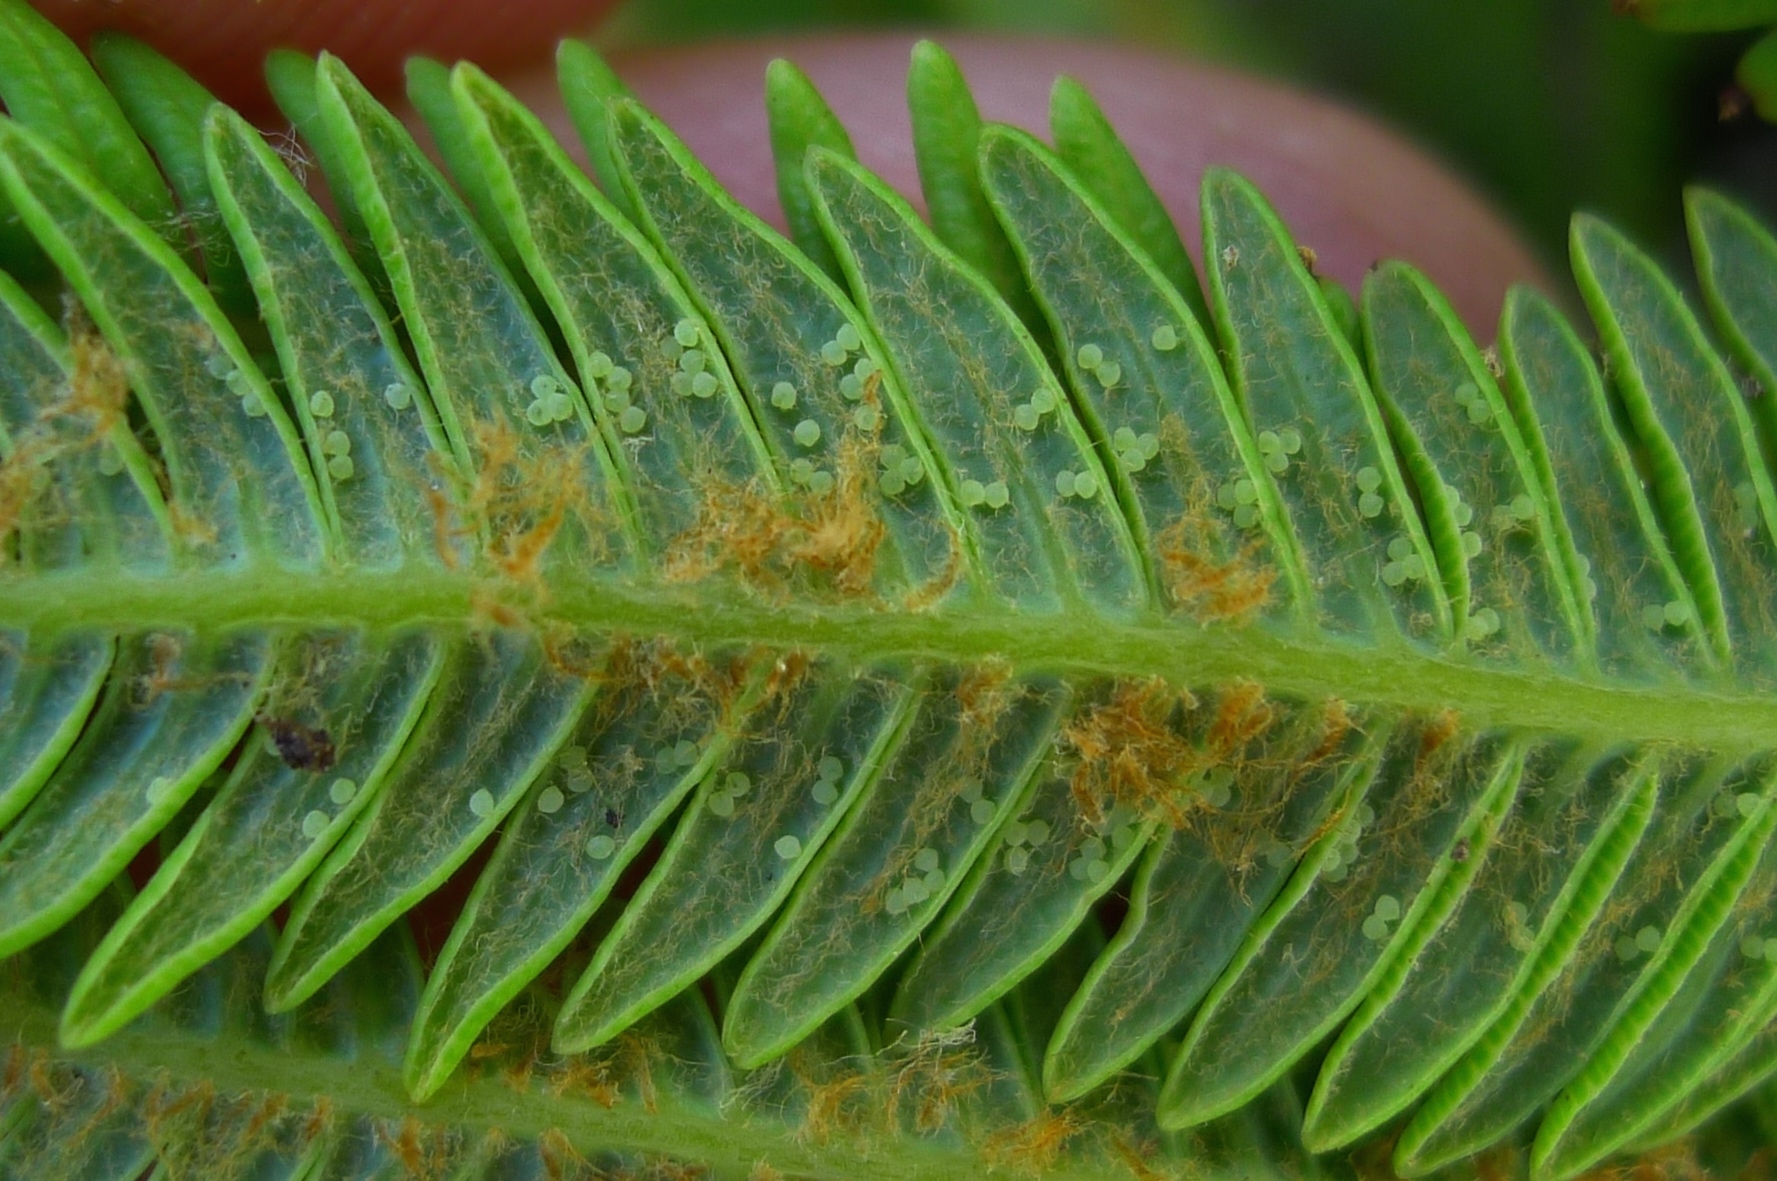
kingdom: Plantae
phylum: Tracheophyta
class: Polypodiopsida
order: Gleicheniales
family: Gleicheniaceae
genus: Sticherus
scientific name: Sticherus cunninghamii
